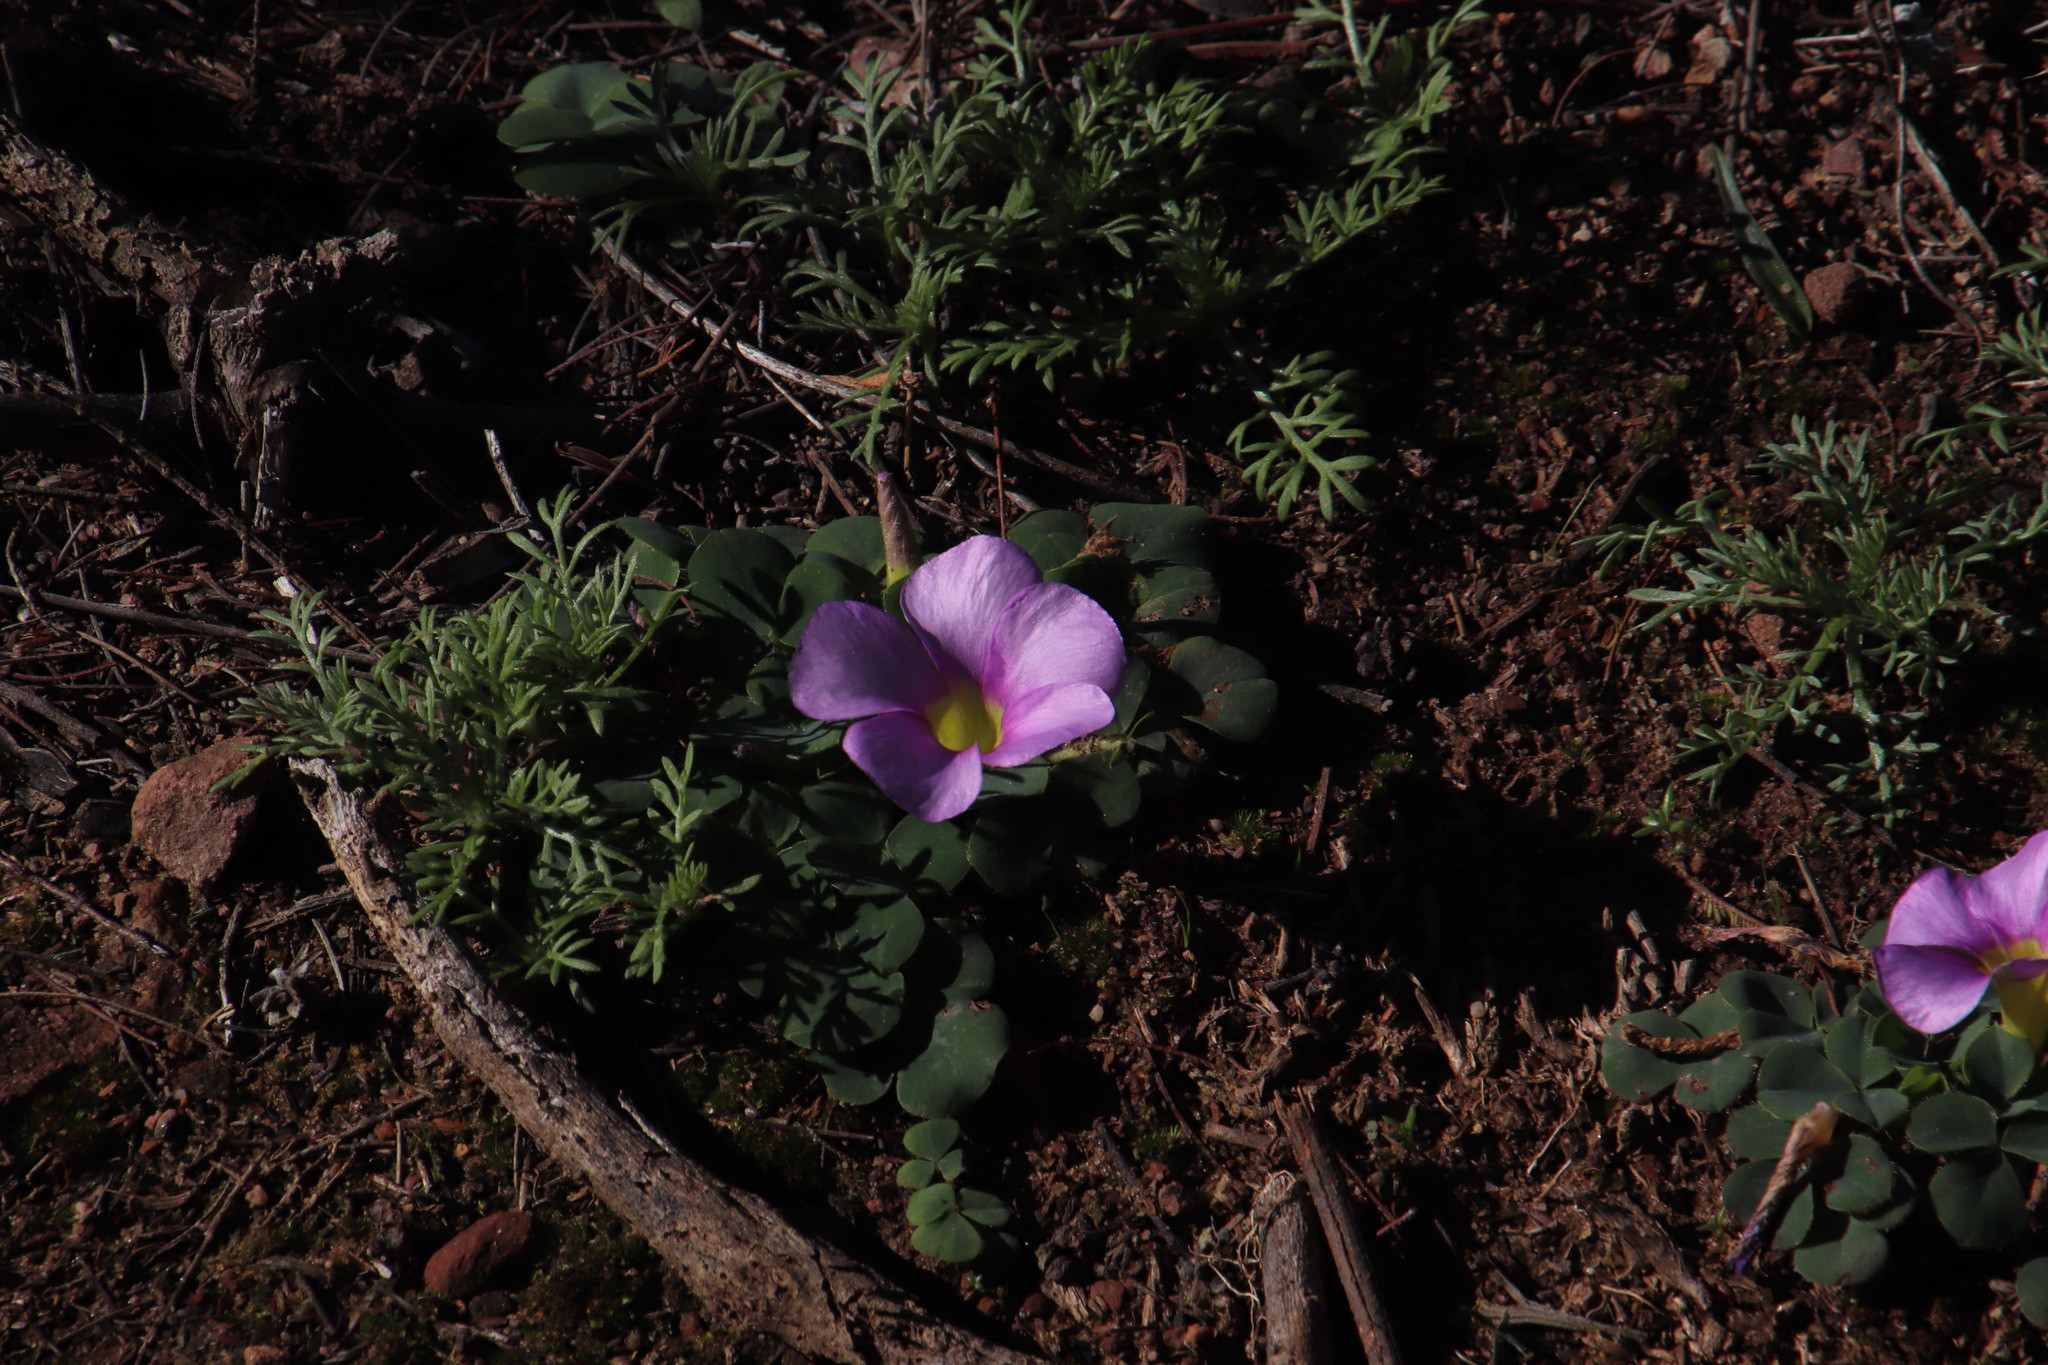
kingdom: Plantae
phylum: Tracheophyta
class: Magnoliopsida
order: Oxalidales
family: Oxalidaceae
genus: Oxalis
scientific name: Oxalis purpurea
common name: Purple woodsorrel
